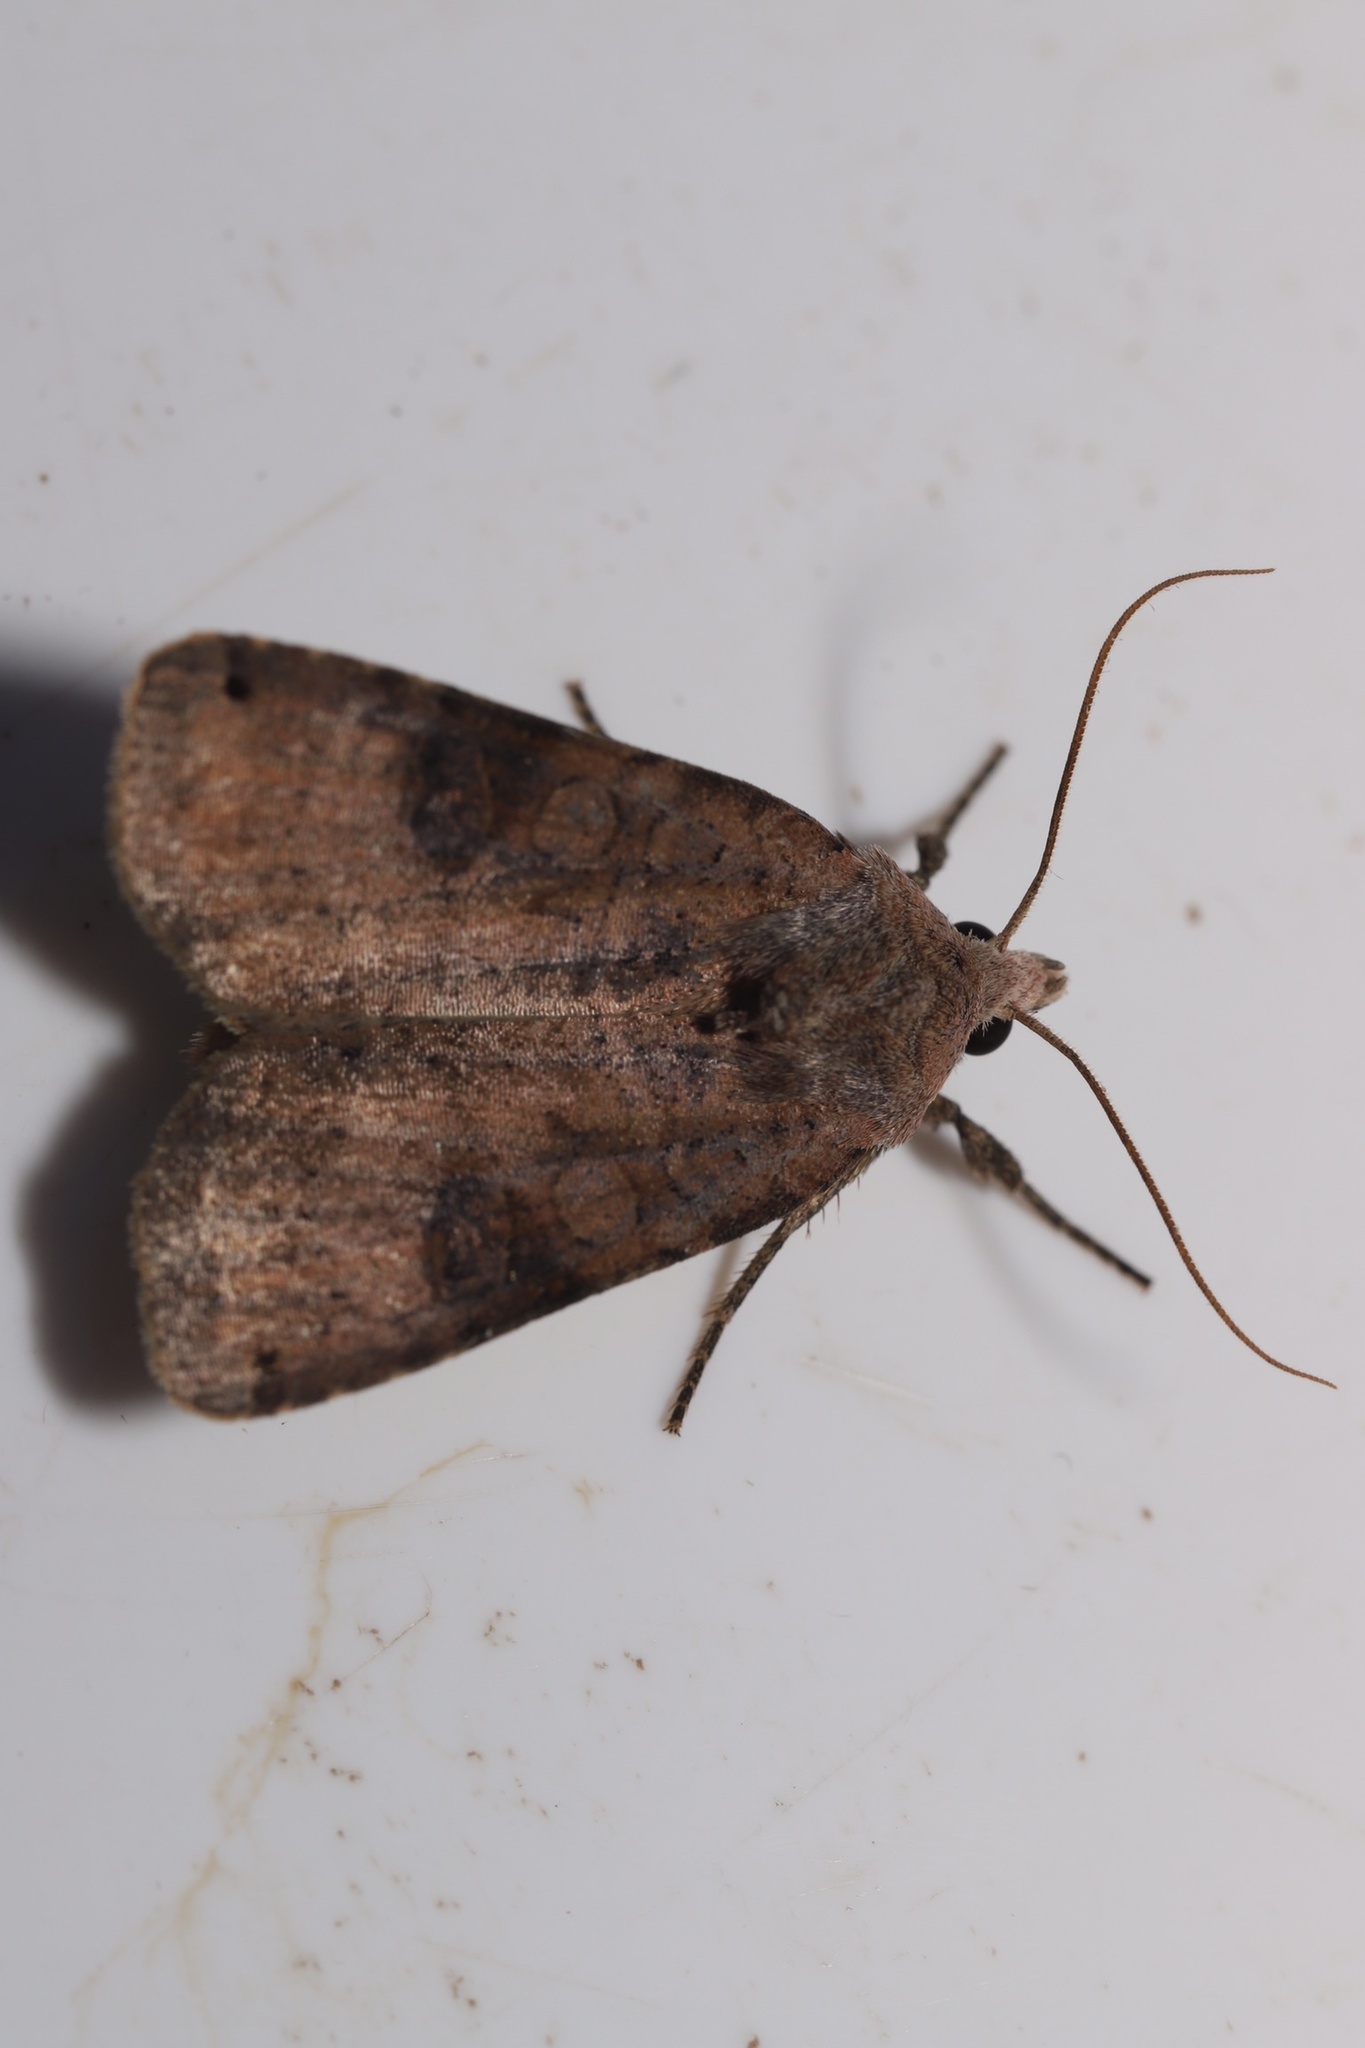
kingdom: Animalia
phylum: Arthropoda
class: Insecta
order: Lepidoptera
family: Noctuidae
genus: Xestia
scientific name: Xestia smithii
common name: Smith's dart
